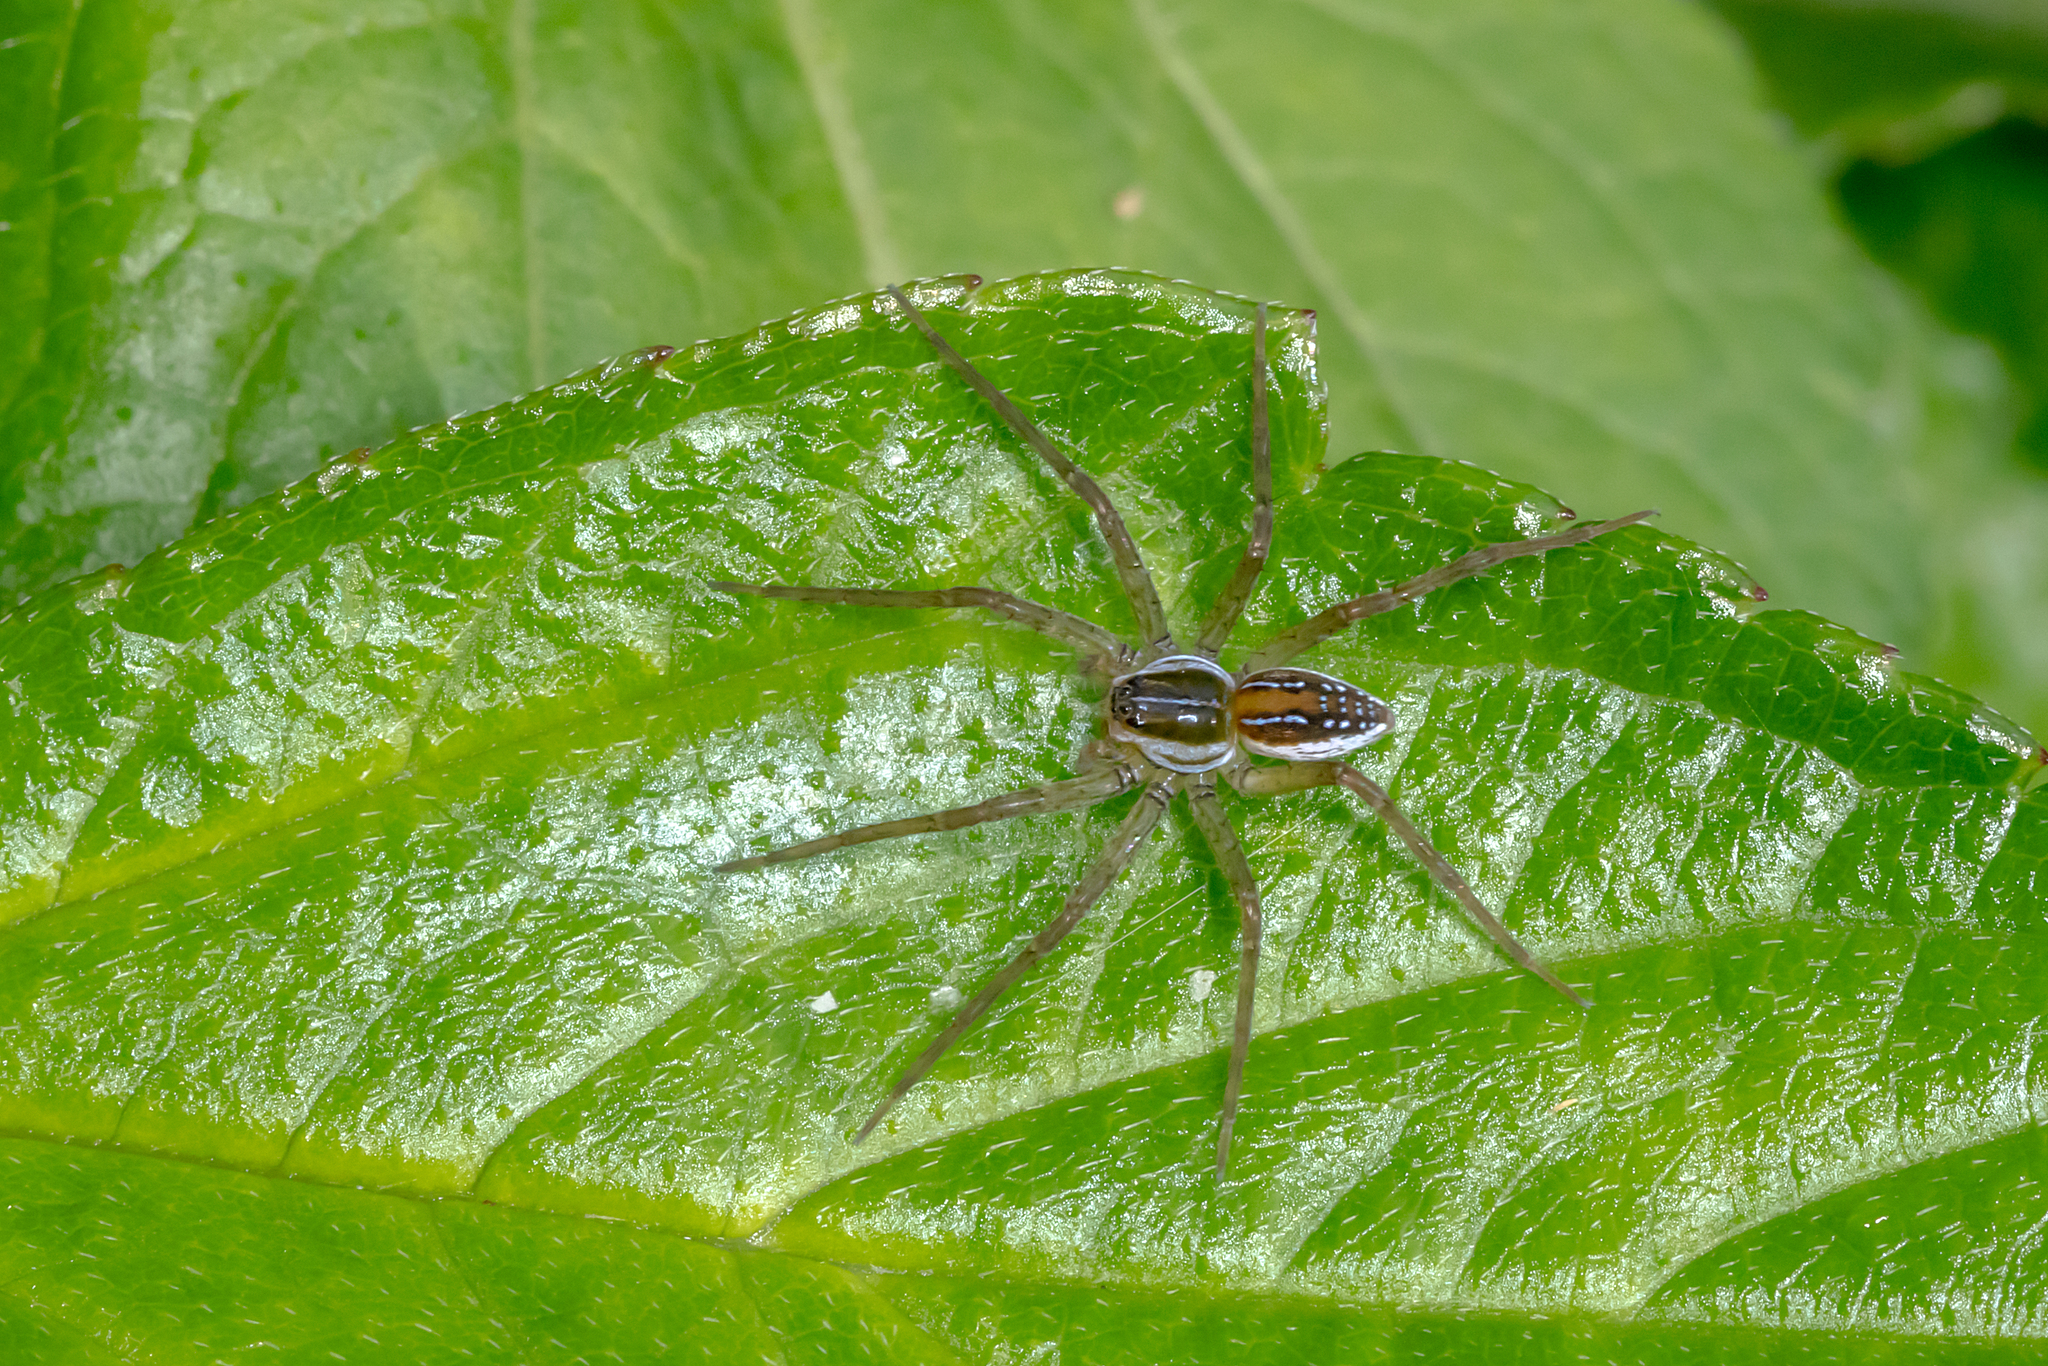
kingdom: Animalia
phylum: Arthropoda
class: Arachnida
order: Araneae
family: Pisauridae
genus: Dolomedes
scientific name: Dolomedes facetus
